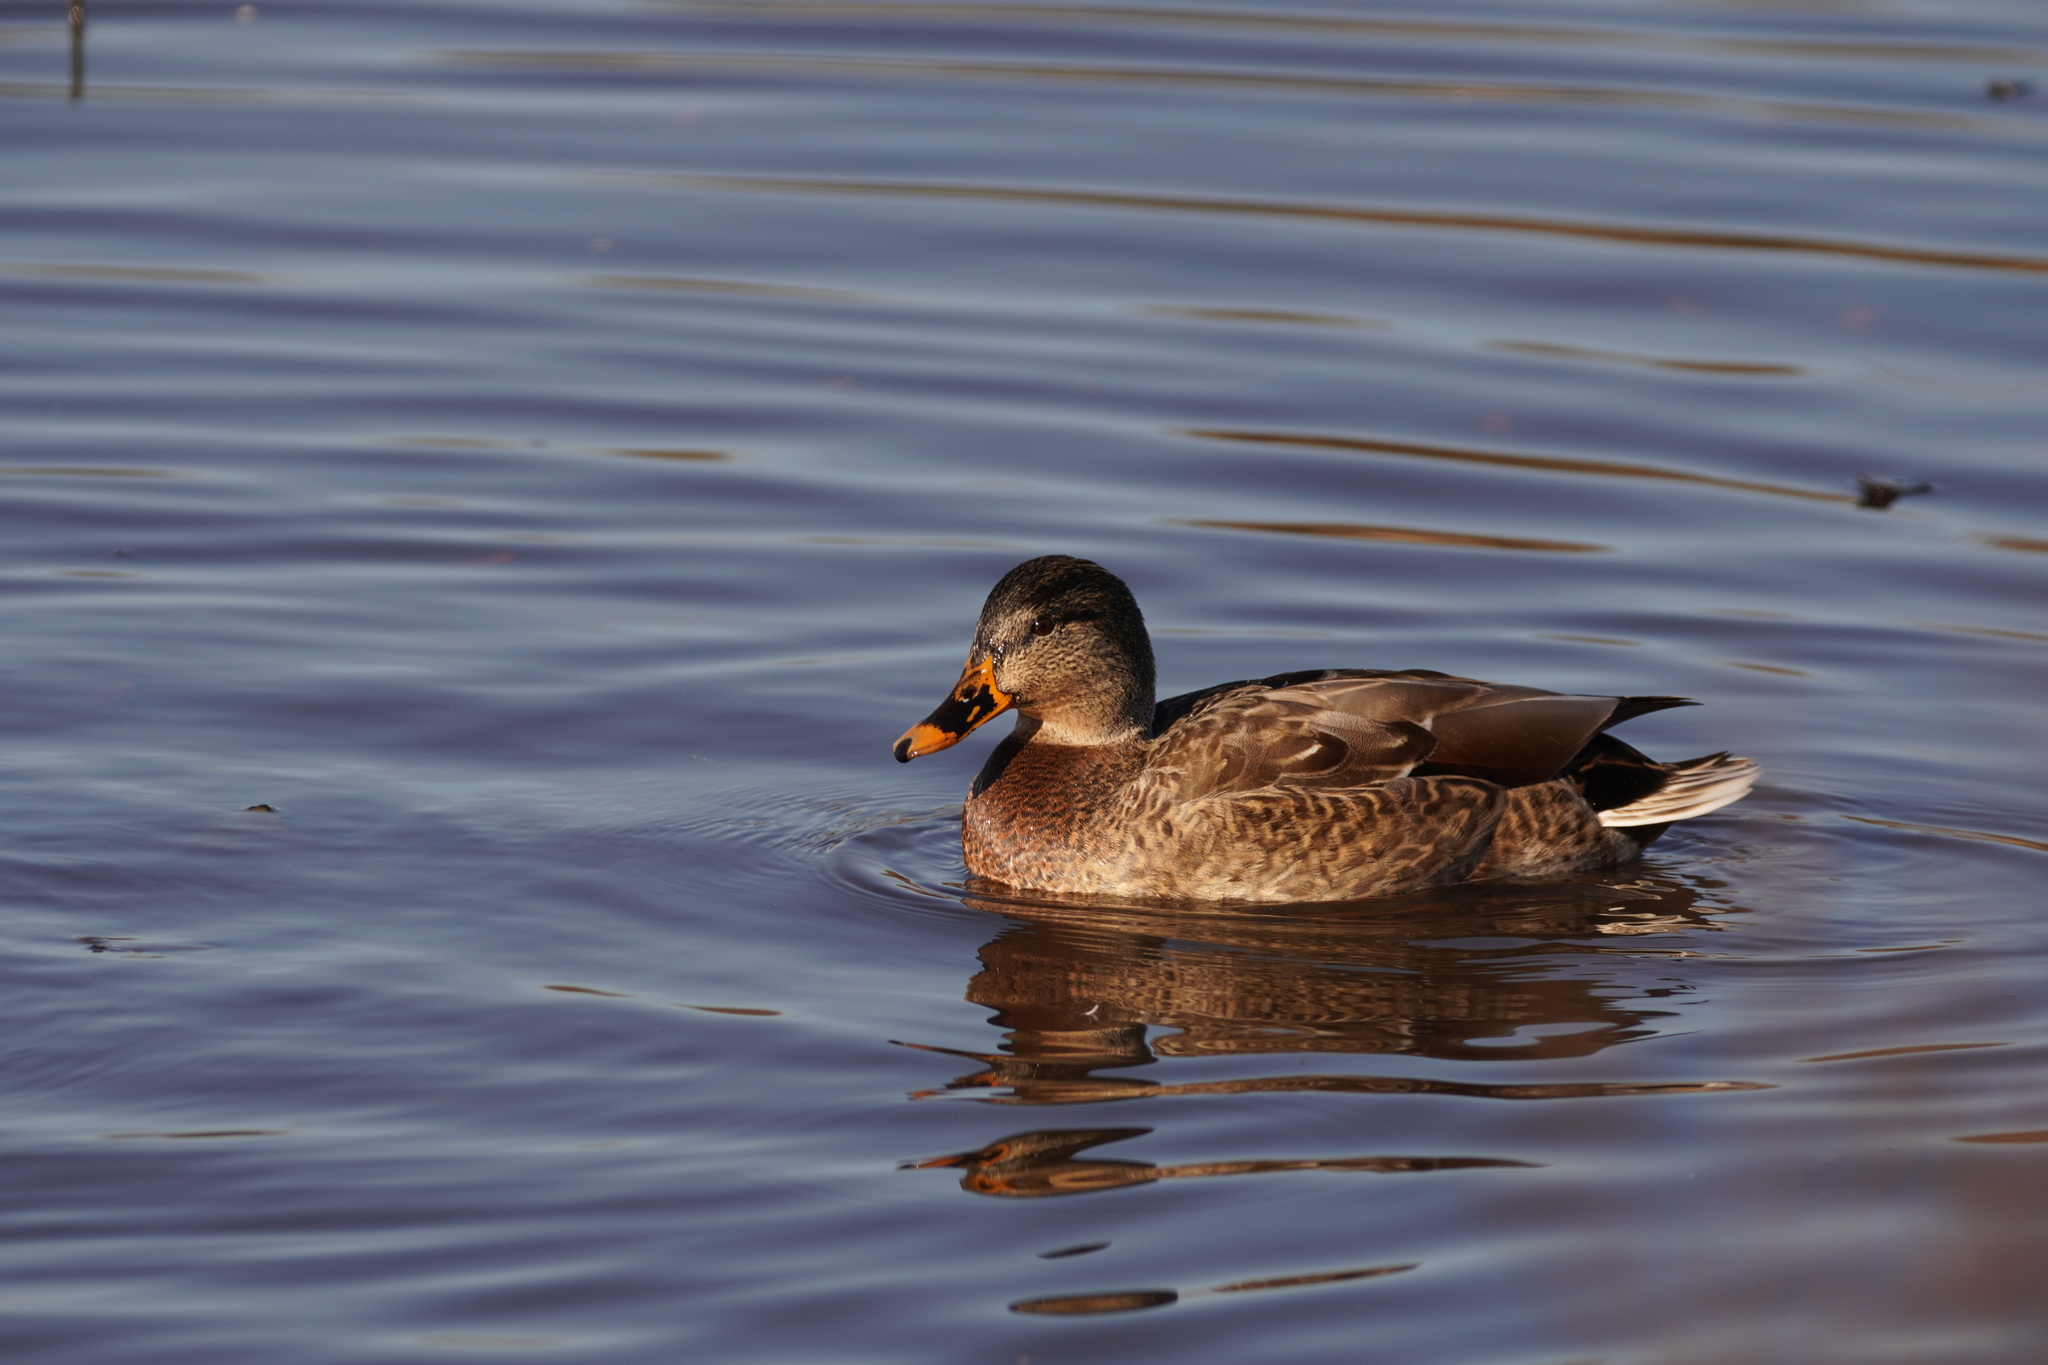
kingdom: Animalia
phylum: Chordata
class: Aves
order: Anseriformes
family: Anatidae
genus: Anas
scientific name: Anas platyrhynchos
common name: Mallard
